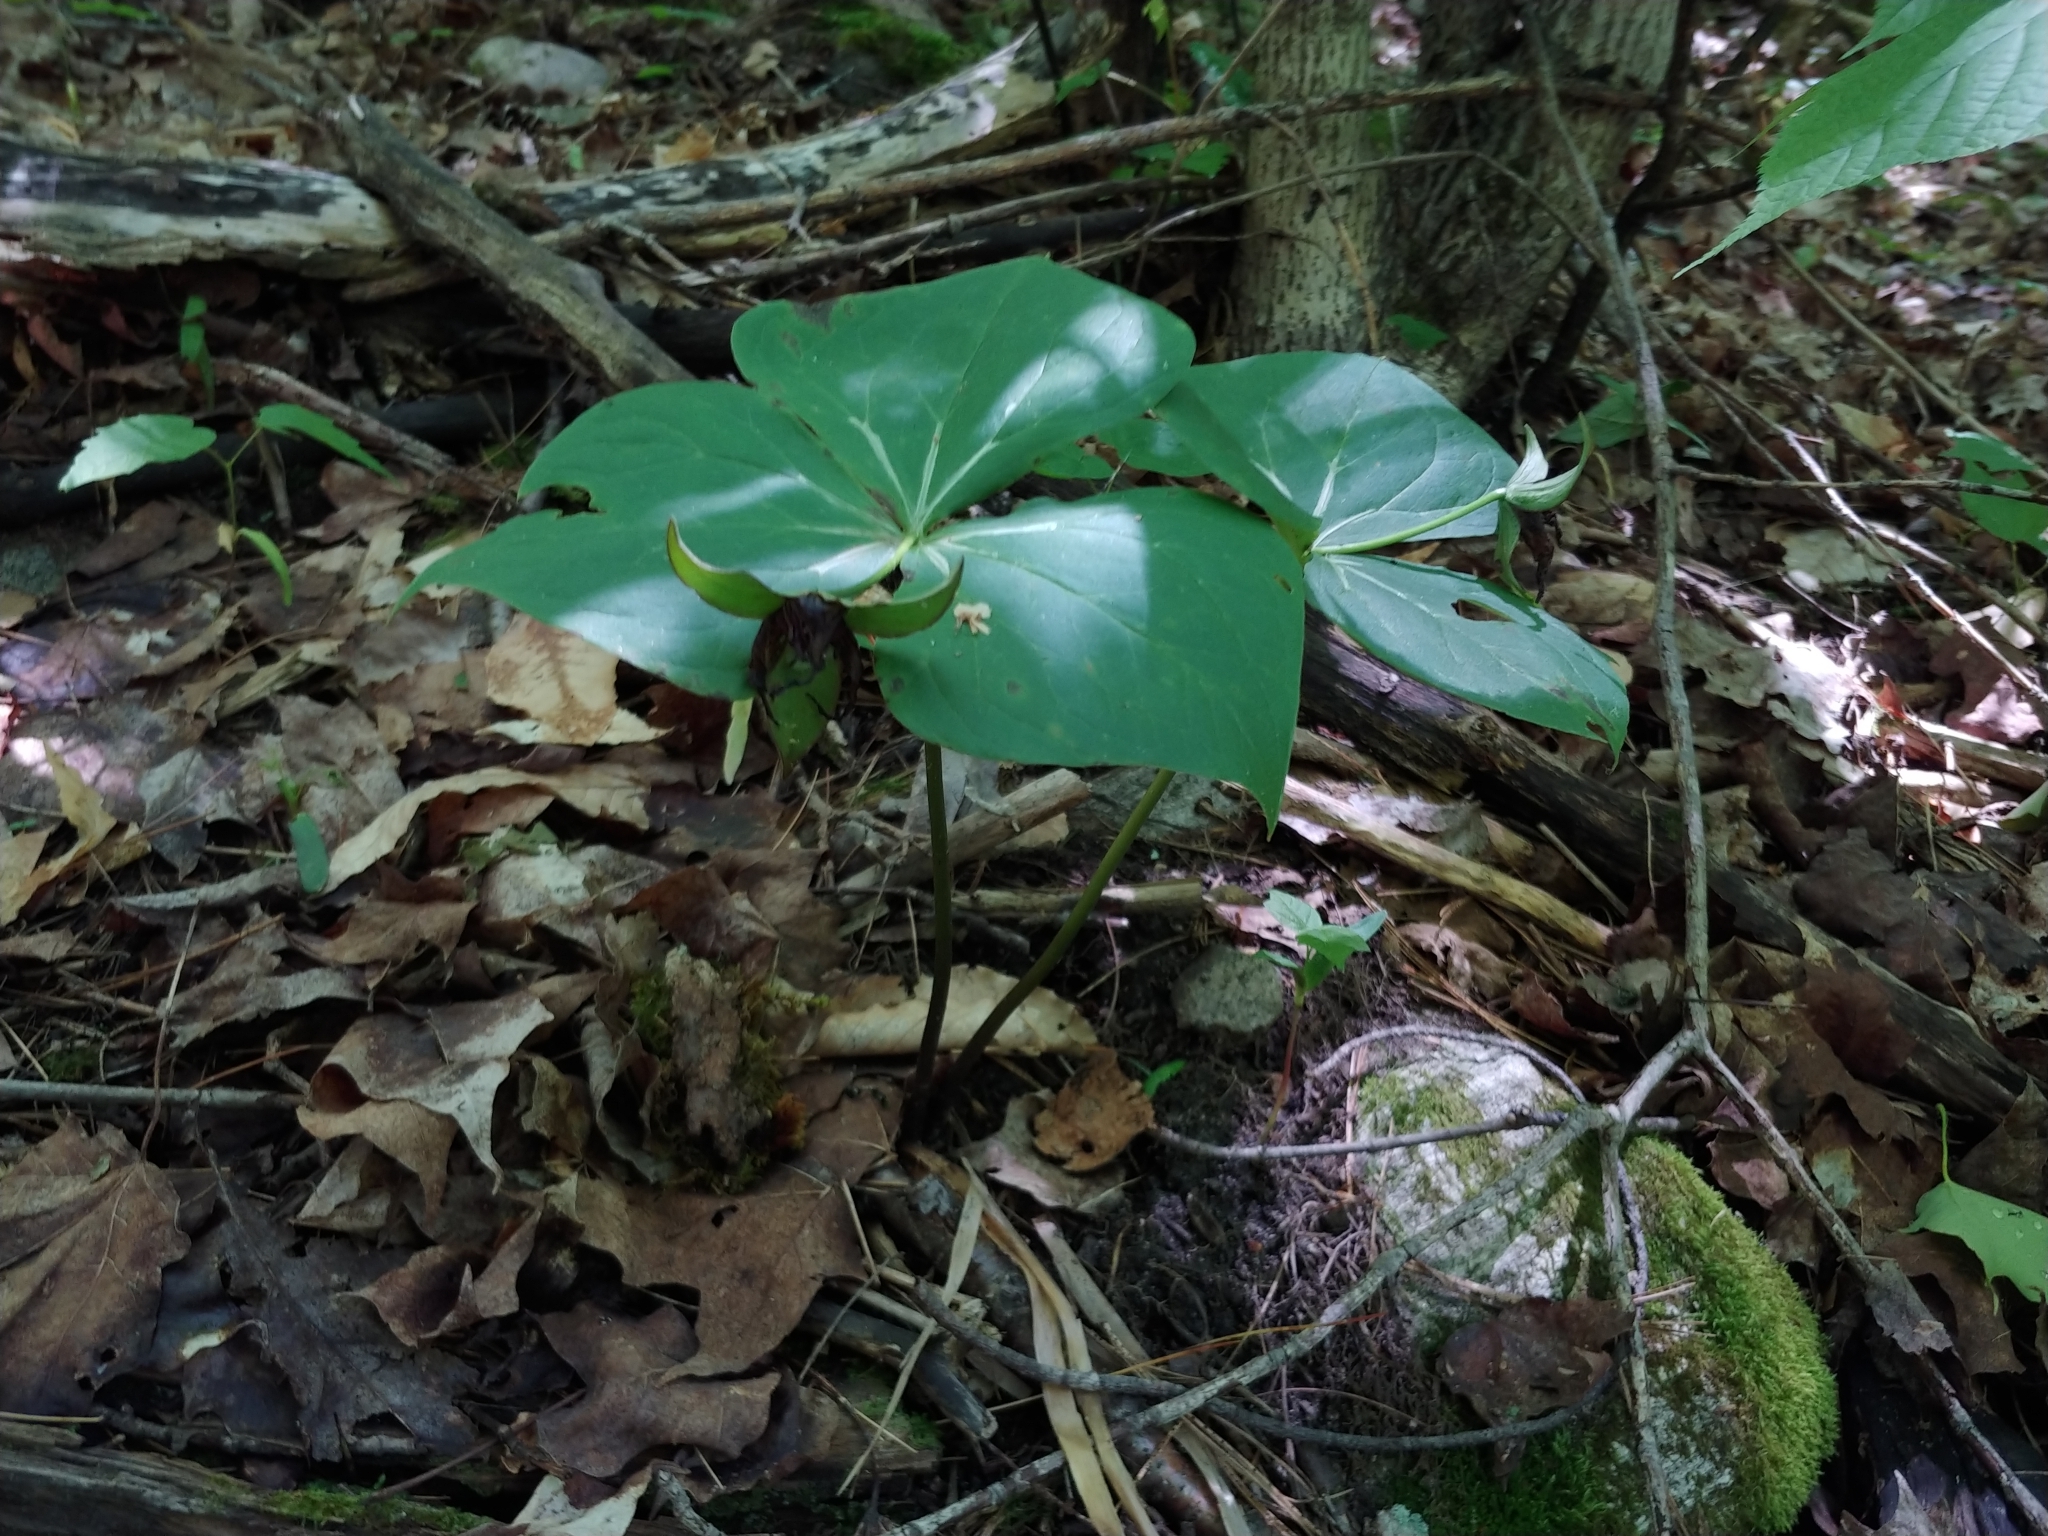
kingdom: Plantae
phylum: Tracheophyta
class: Liliopsida
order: Liliales
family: Melanthiaceae
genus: Trillium
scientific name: Trillium erectum
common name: Purple trillium
